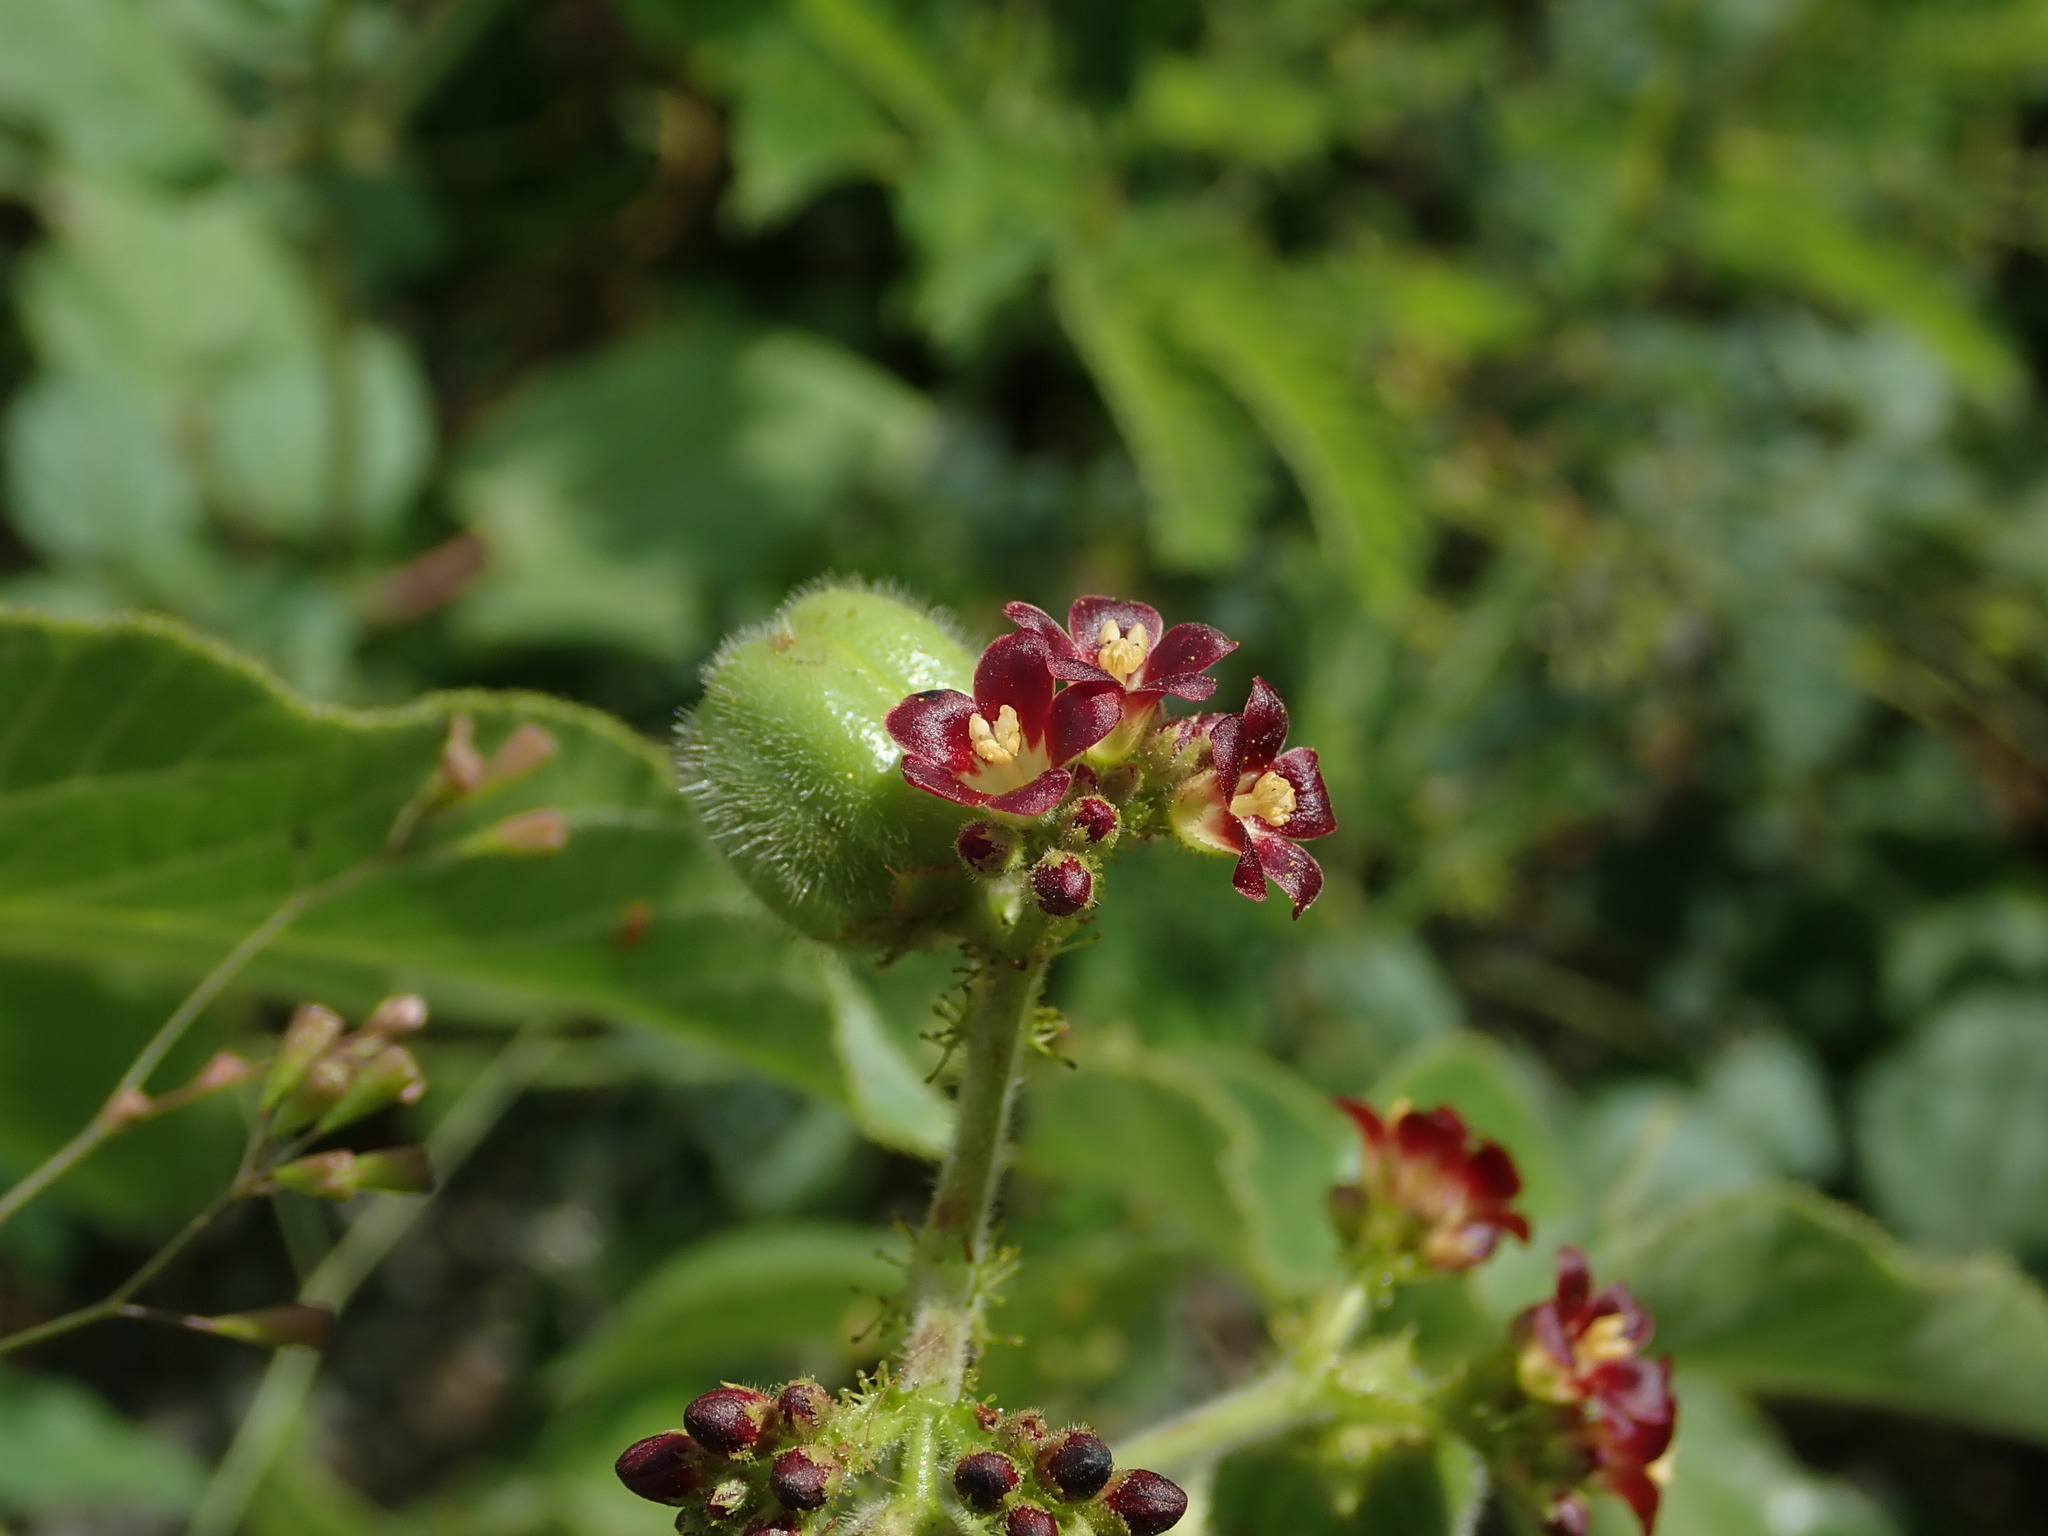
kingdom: Plantae
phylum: Tracheophyta
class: Magnoliopsida
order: Malpighiales
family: Euphorbiaceae
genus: Jatropha
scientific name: Jatropha gossypiifolia
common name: Bellyache bush
